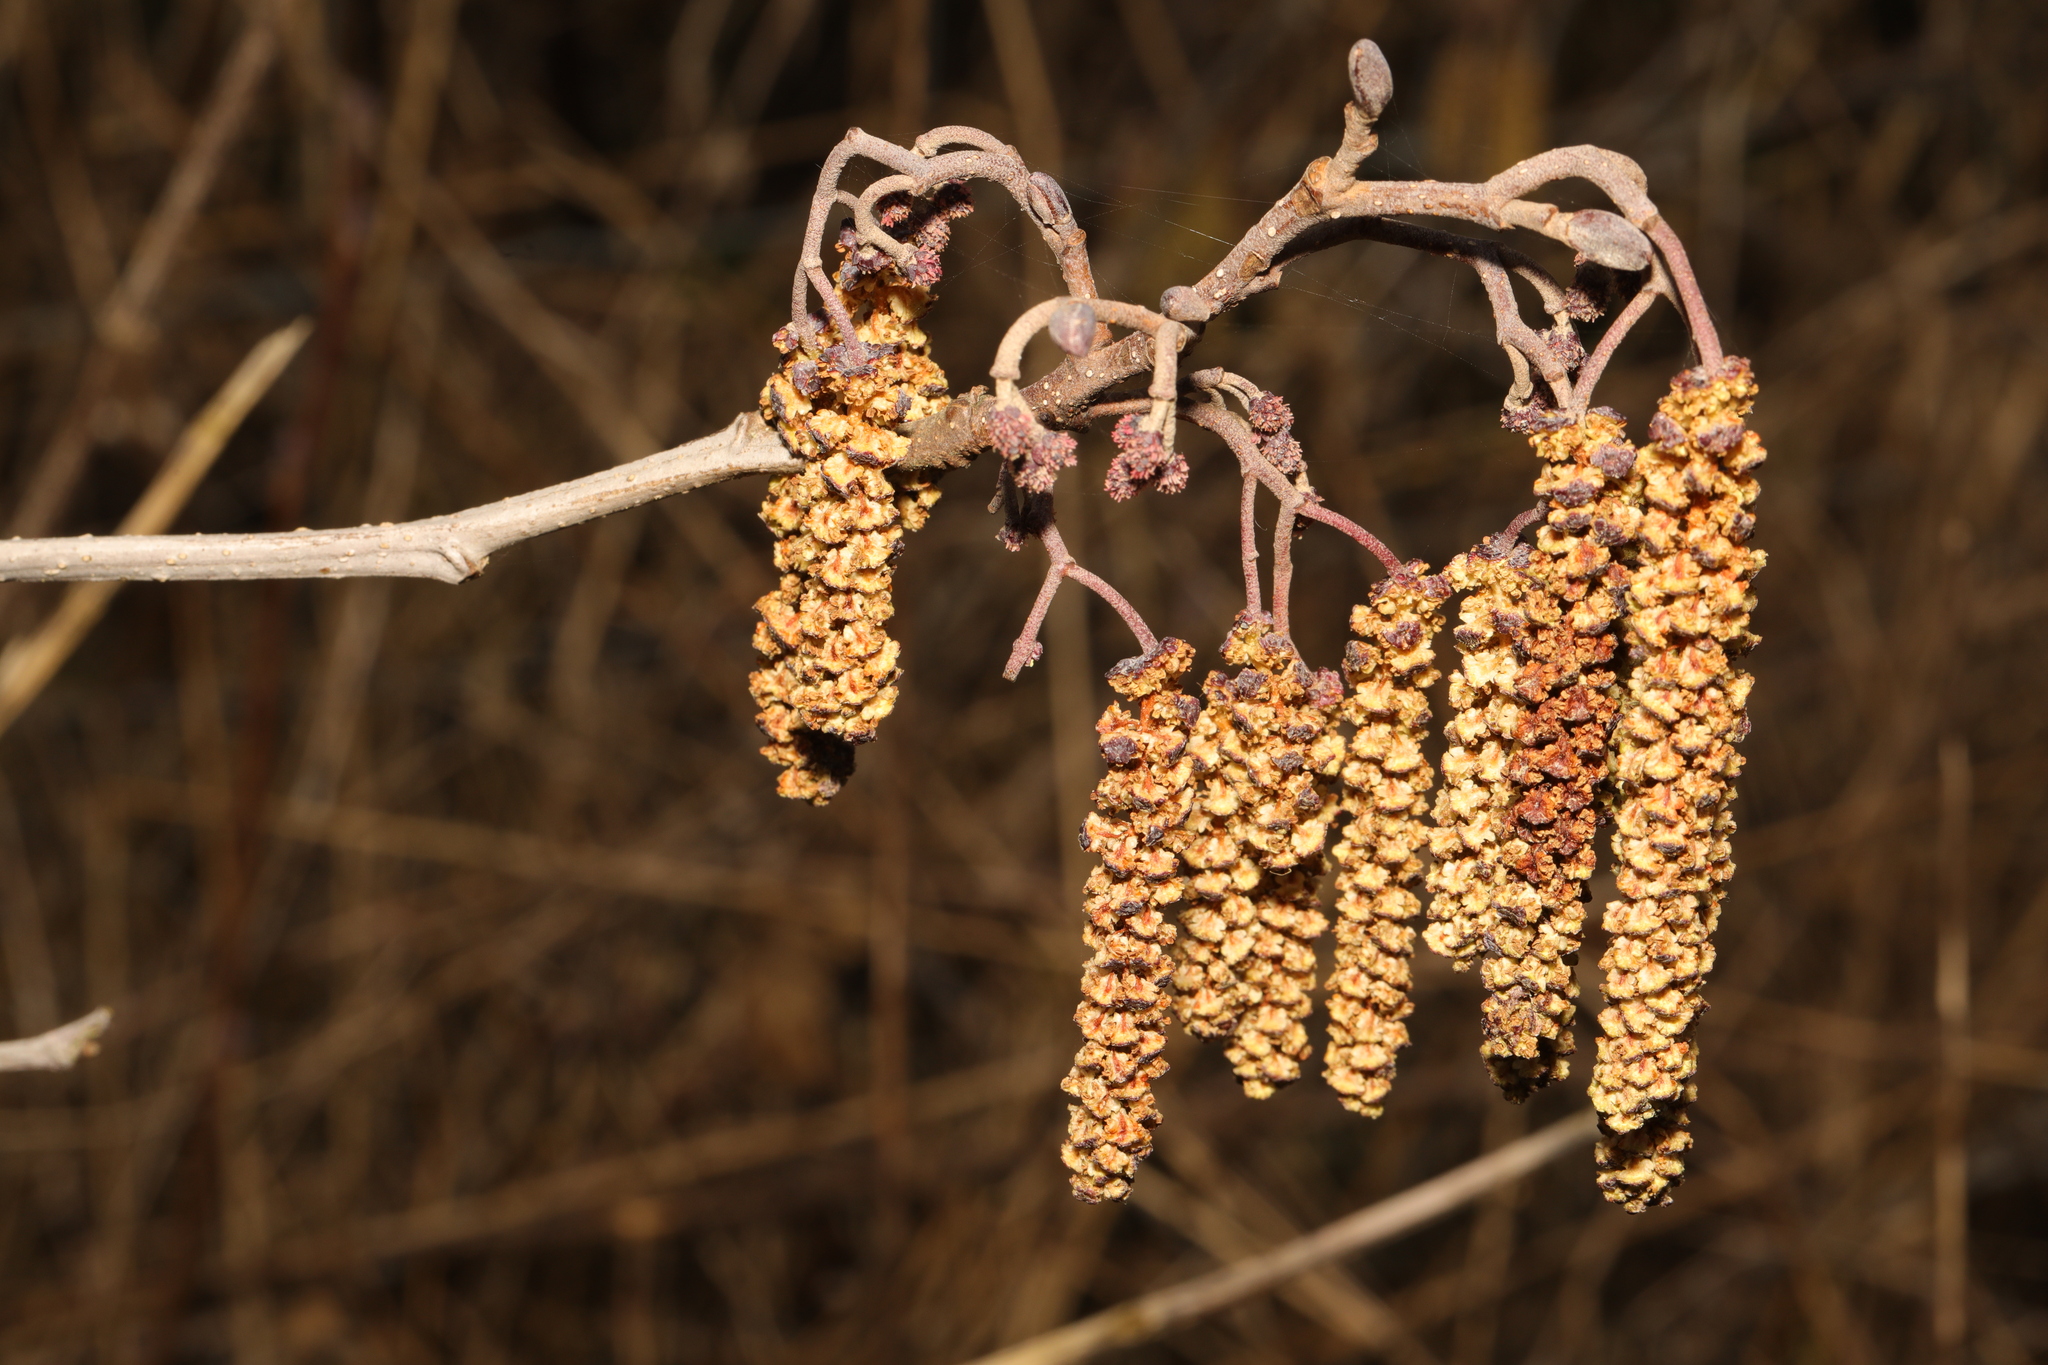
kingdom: Plantae
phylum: Tracheophyta
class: Magnoliopsida
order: Fagales
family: Betulaceae
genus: Alnus
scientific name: Alnus glutinosa
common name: Black alder
